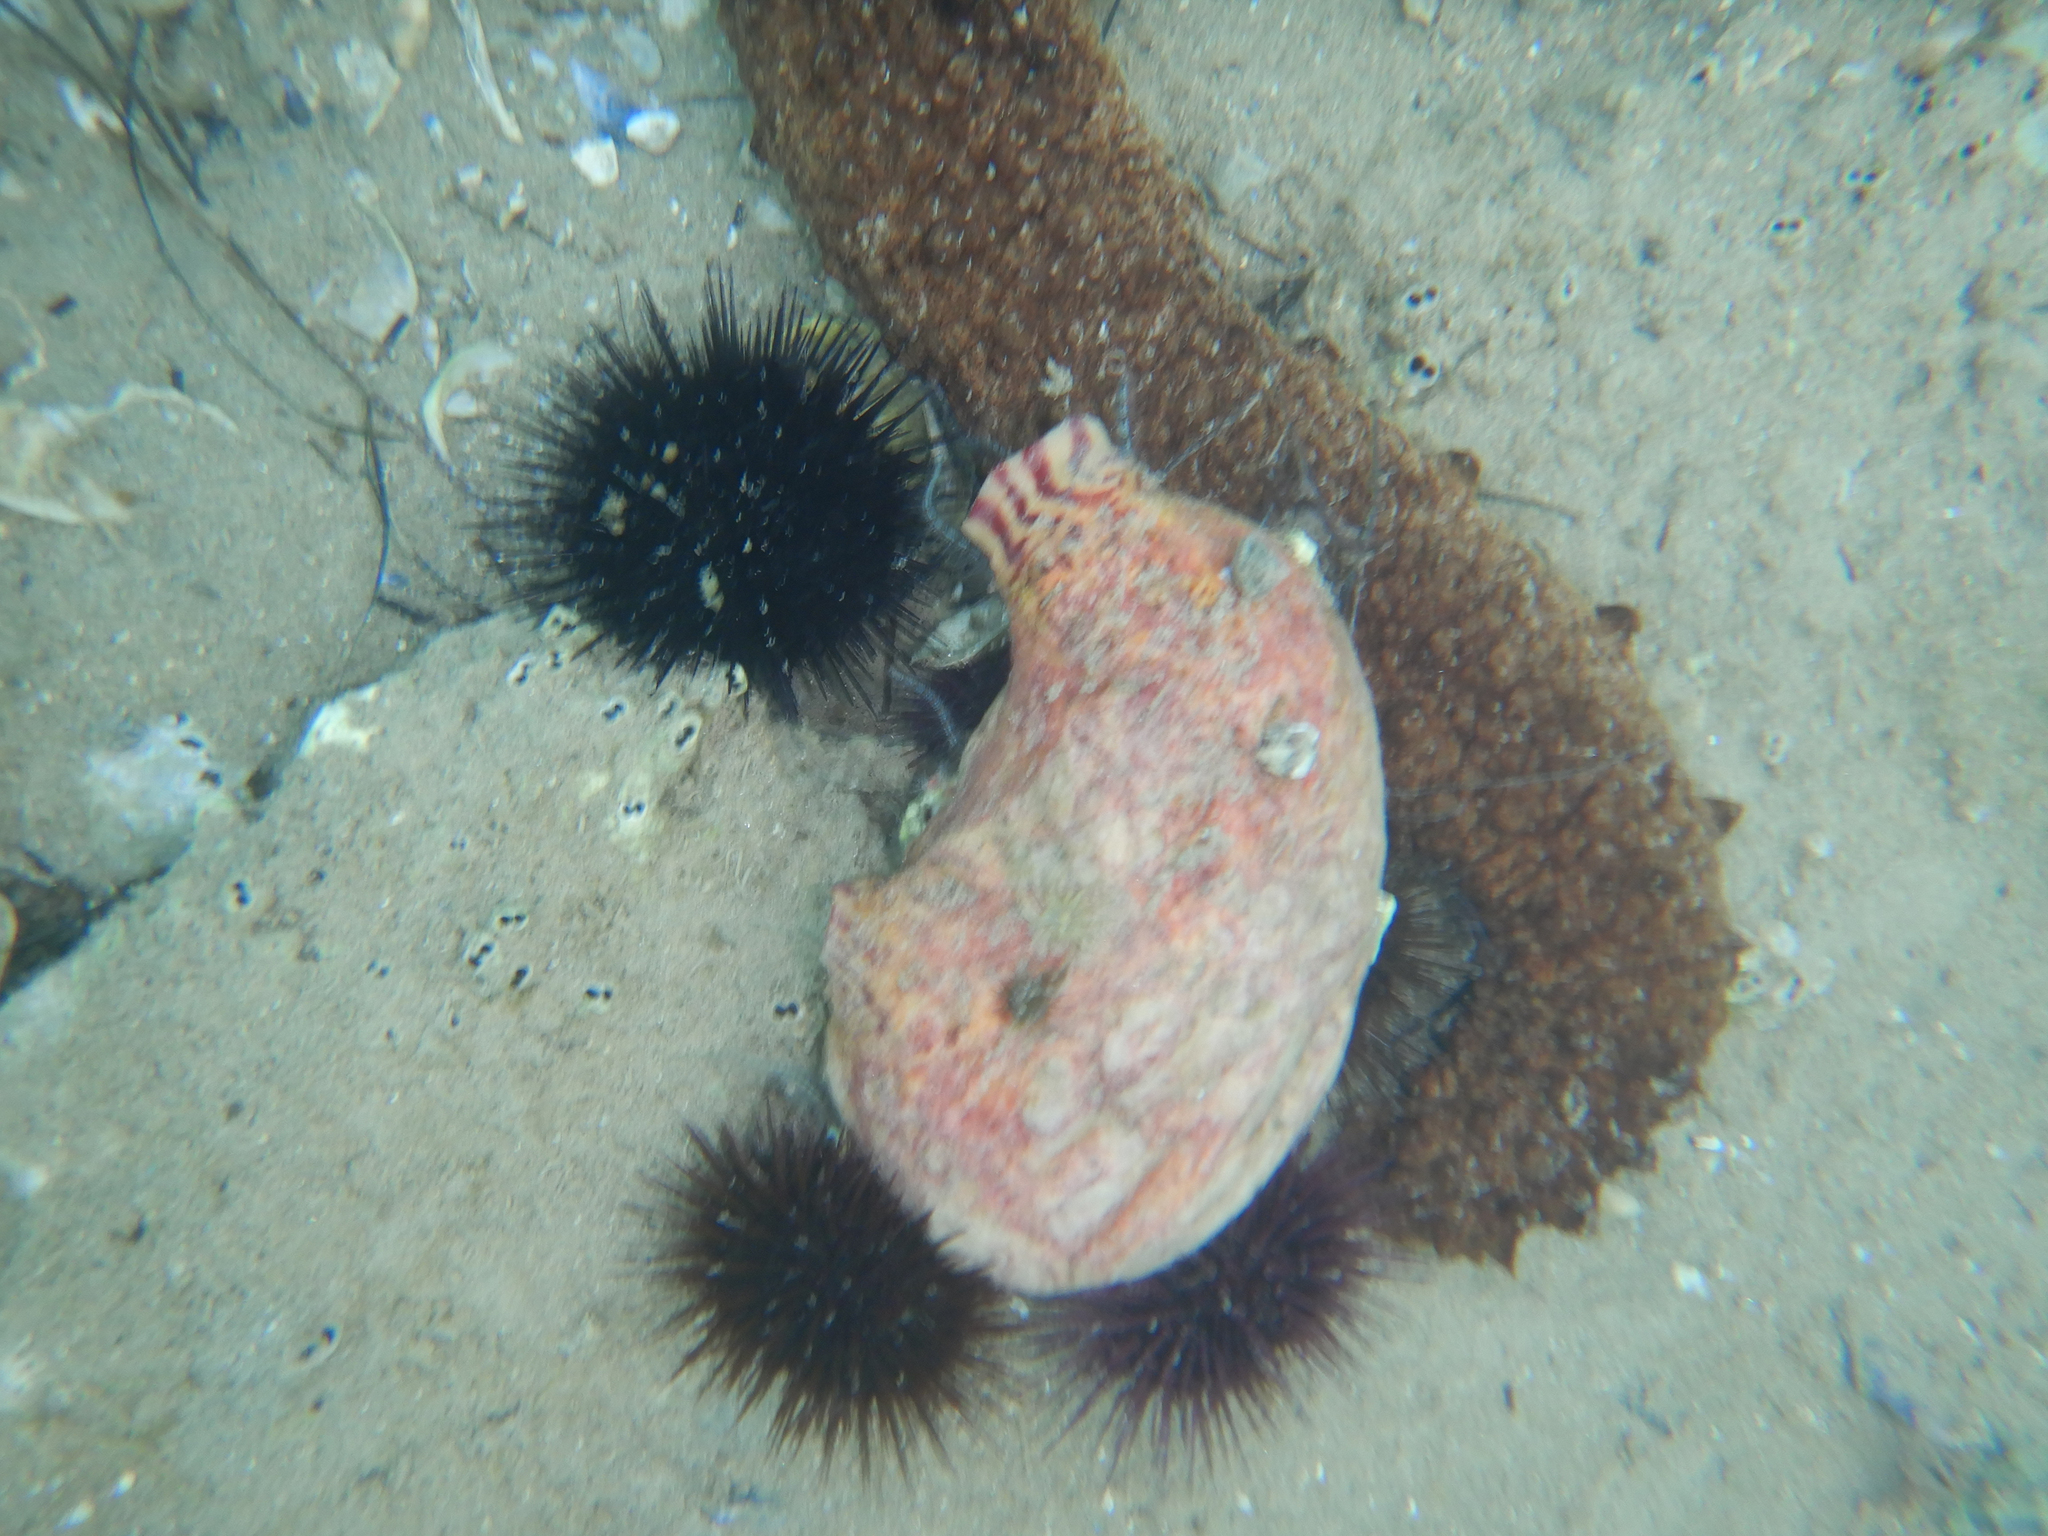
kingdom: Animalia
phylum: Chordata
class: Ascidiacea
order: Stolidobranchia
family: Pyuridae
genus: Microcosmus
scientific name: Microcosmus sabatieri
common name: Grooved sea squirt
